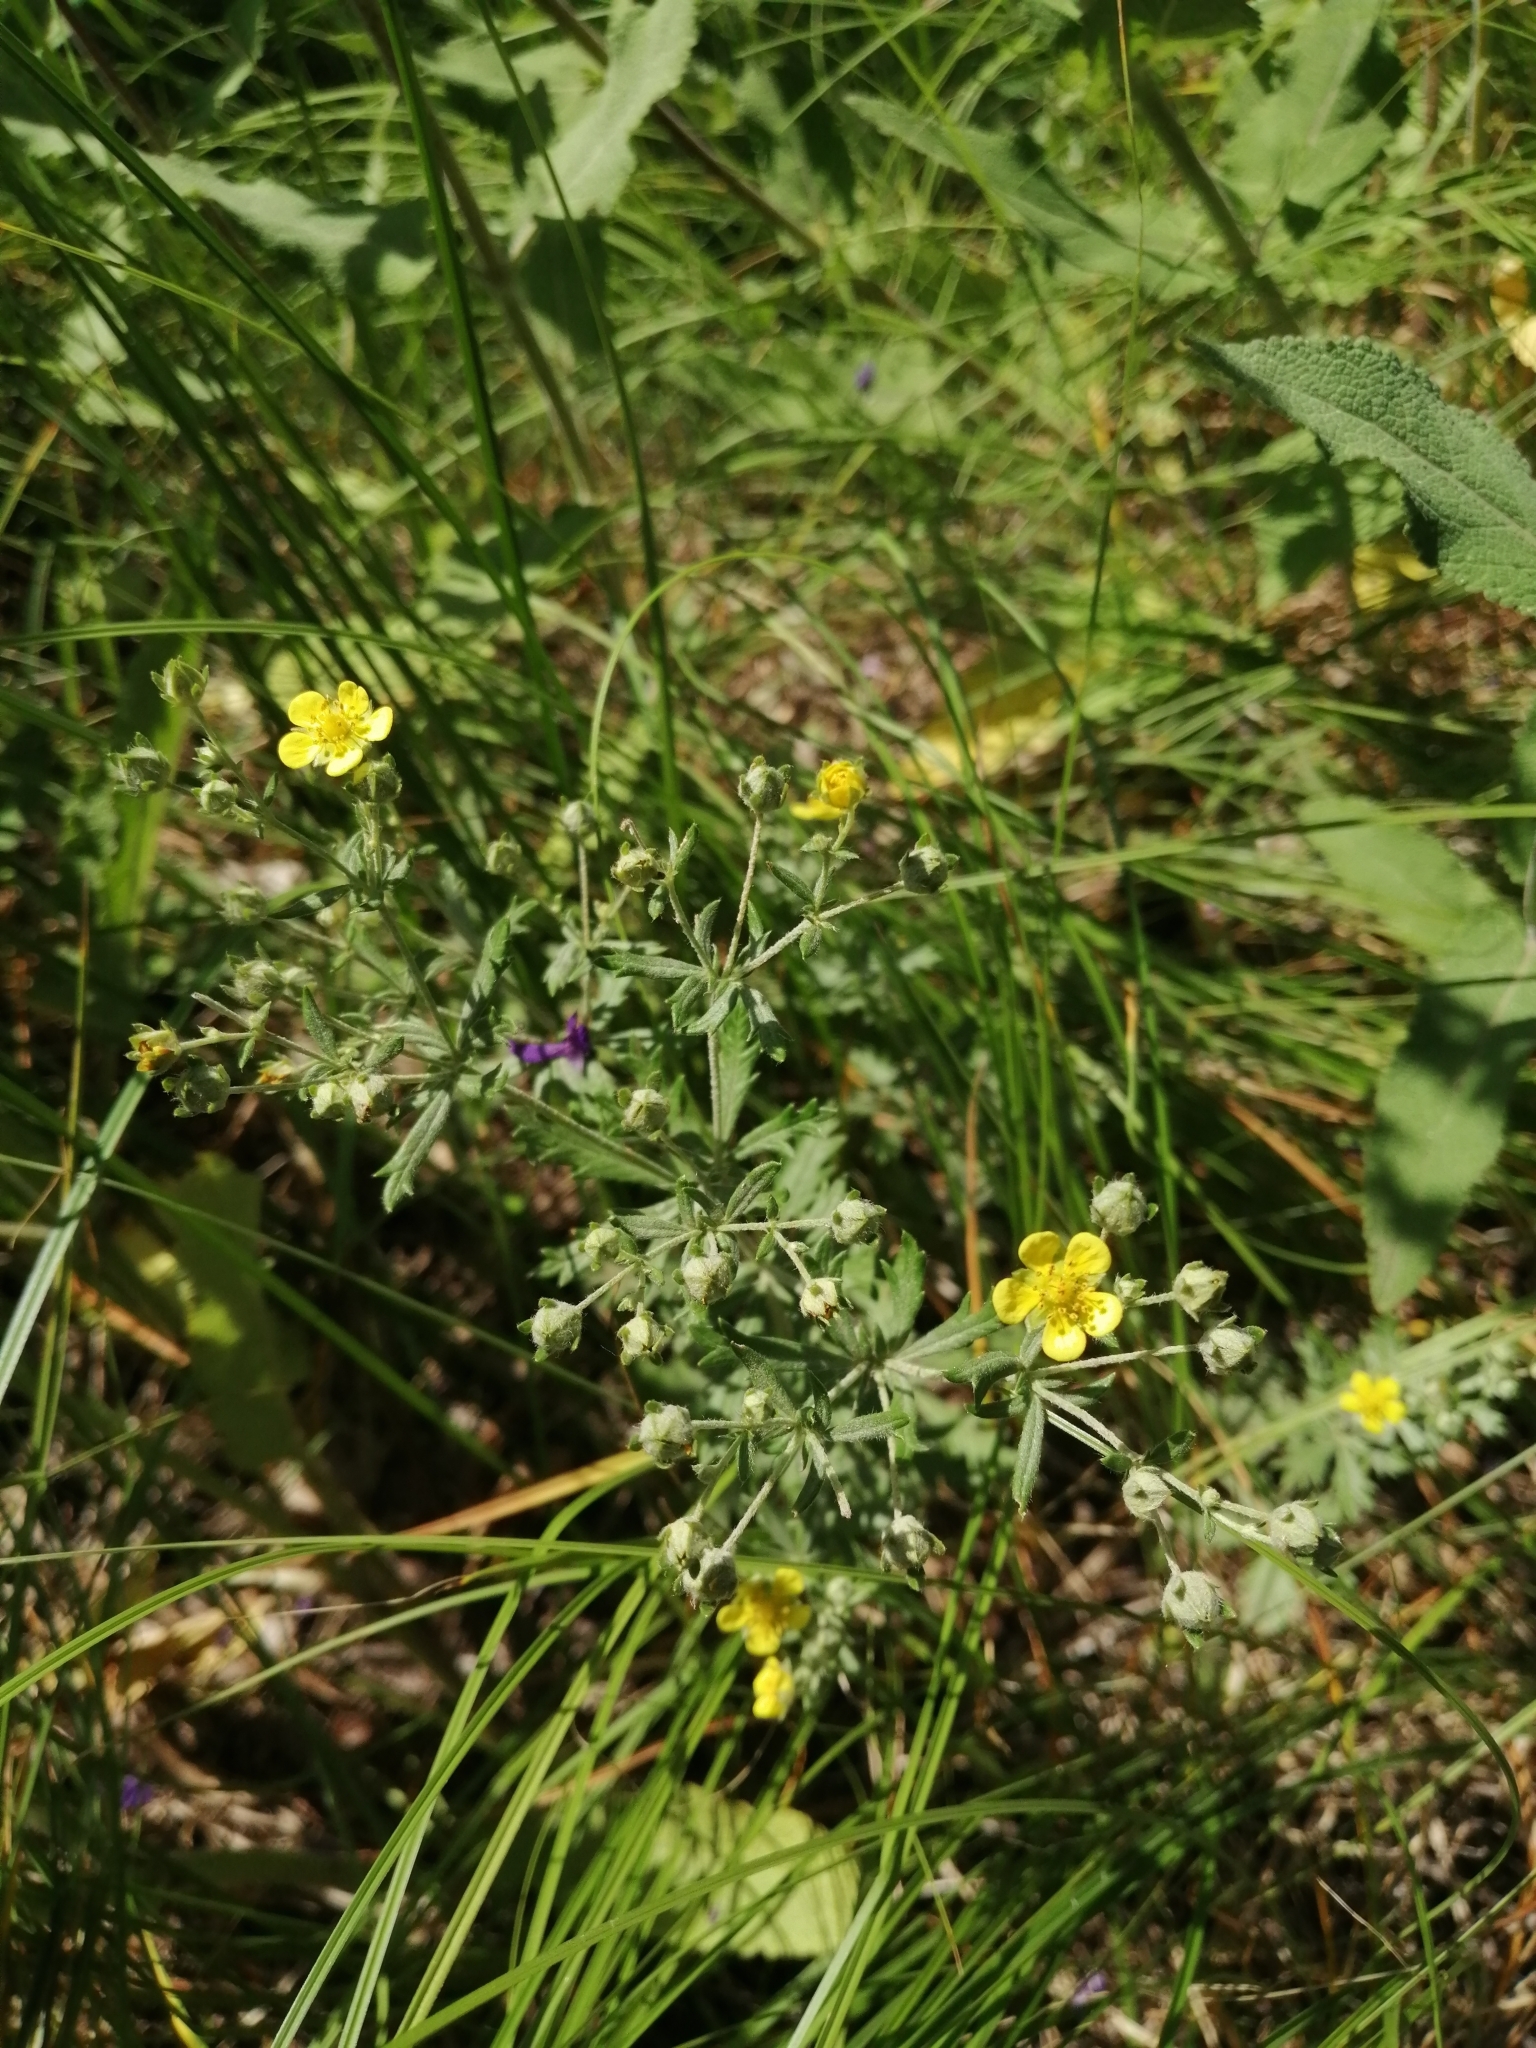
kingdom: Plantae
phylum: Tracheophyta
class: Magnoliopsida
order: Rosales
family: Rosaceae
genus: Potentilla
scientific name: Potentilla argentea
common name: Hoary cinquefoil
